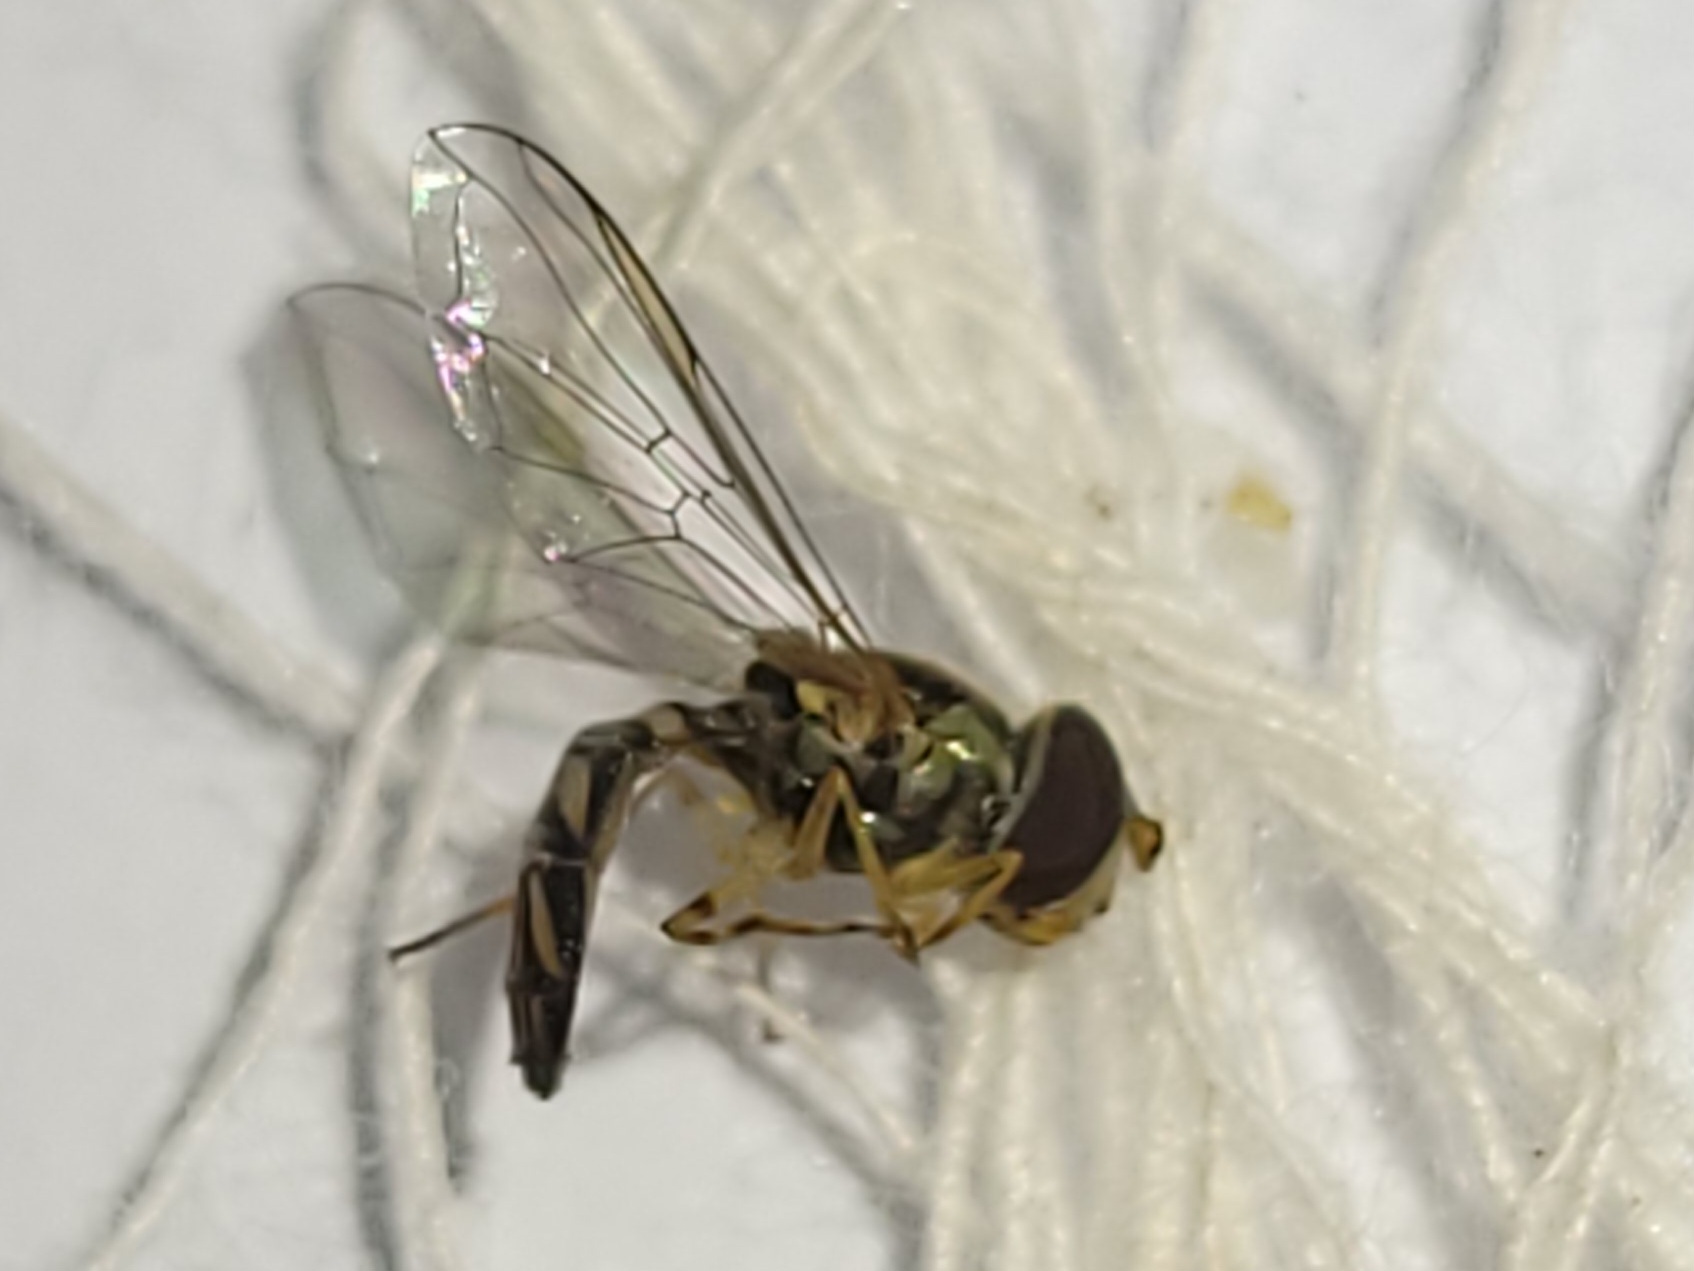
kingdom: Animalia
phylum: Arthropoda
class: Insecta
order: Diptera
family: Syrphidae
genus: Allograpta
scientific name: Allograpta obliqua
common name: Common oblique syrphid
